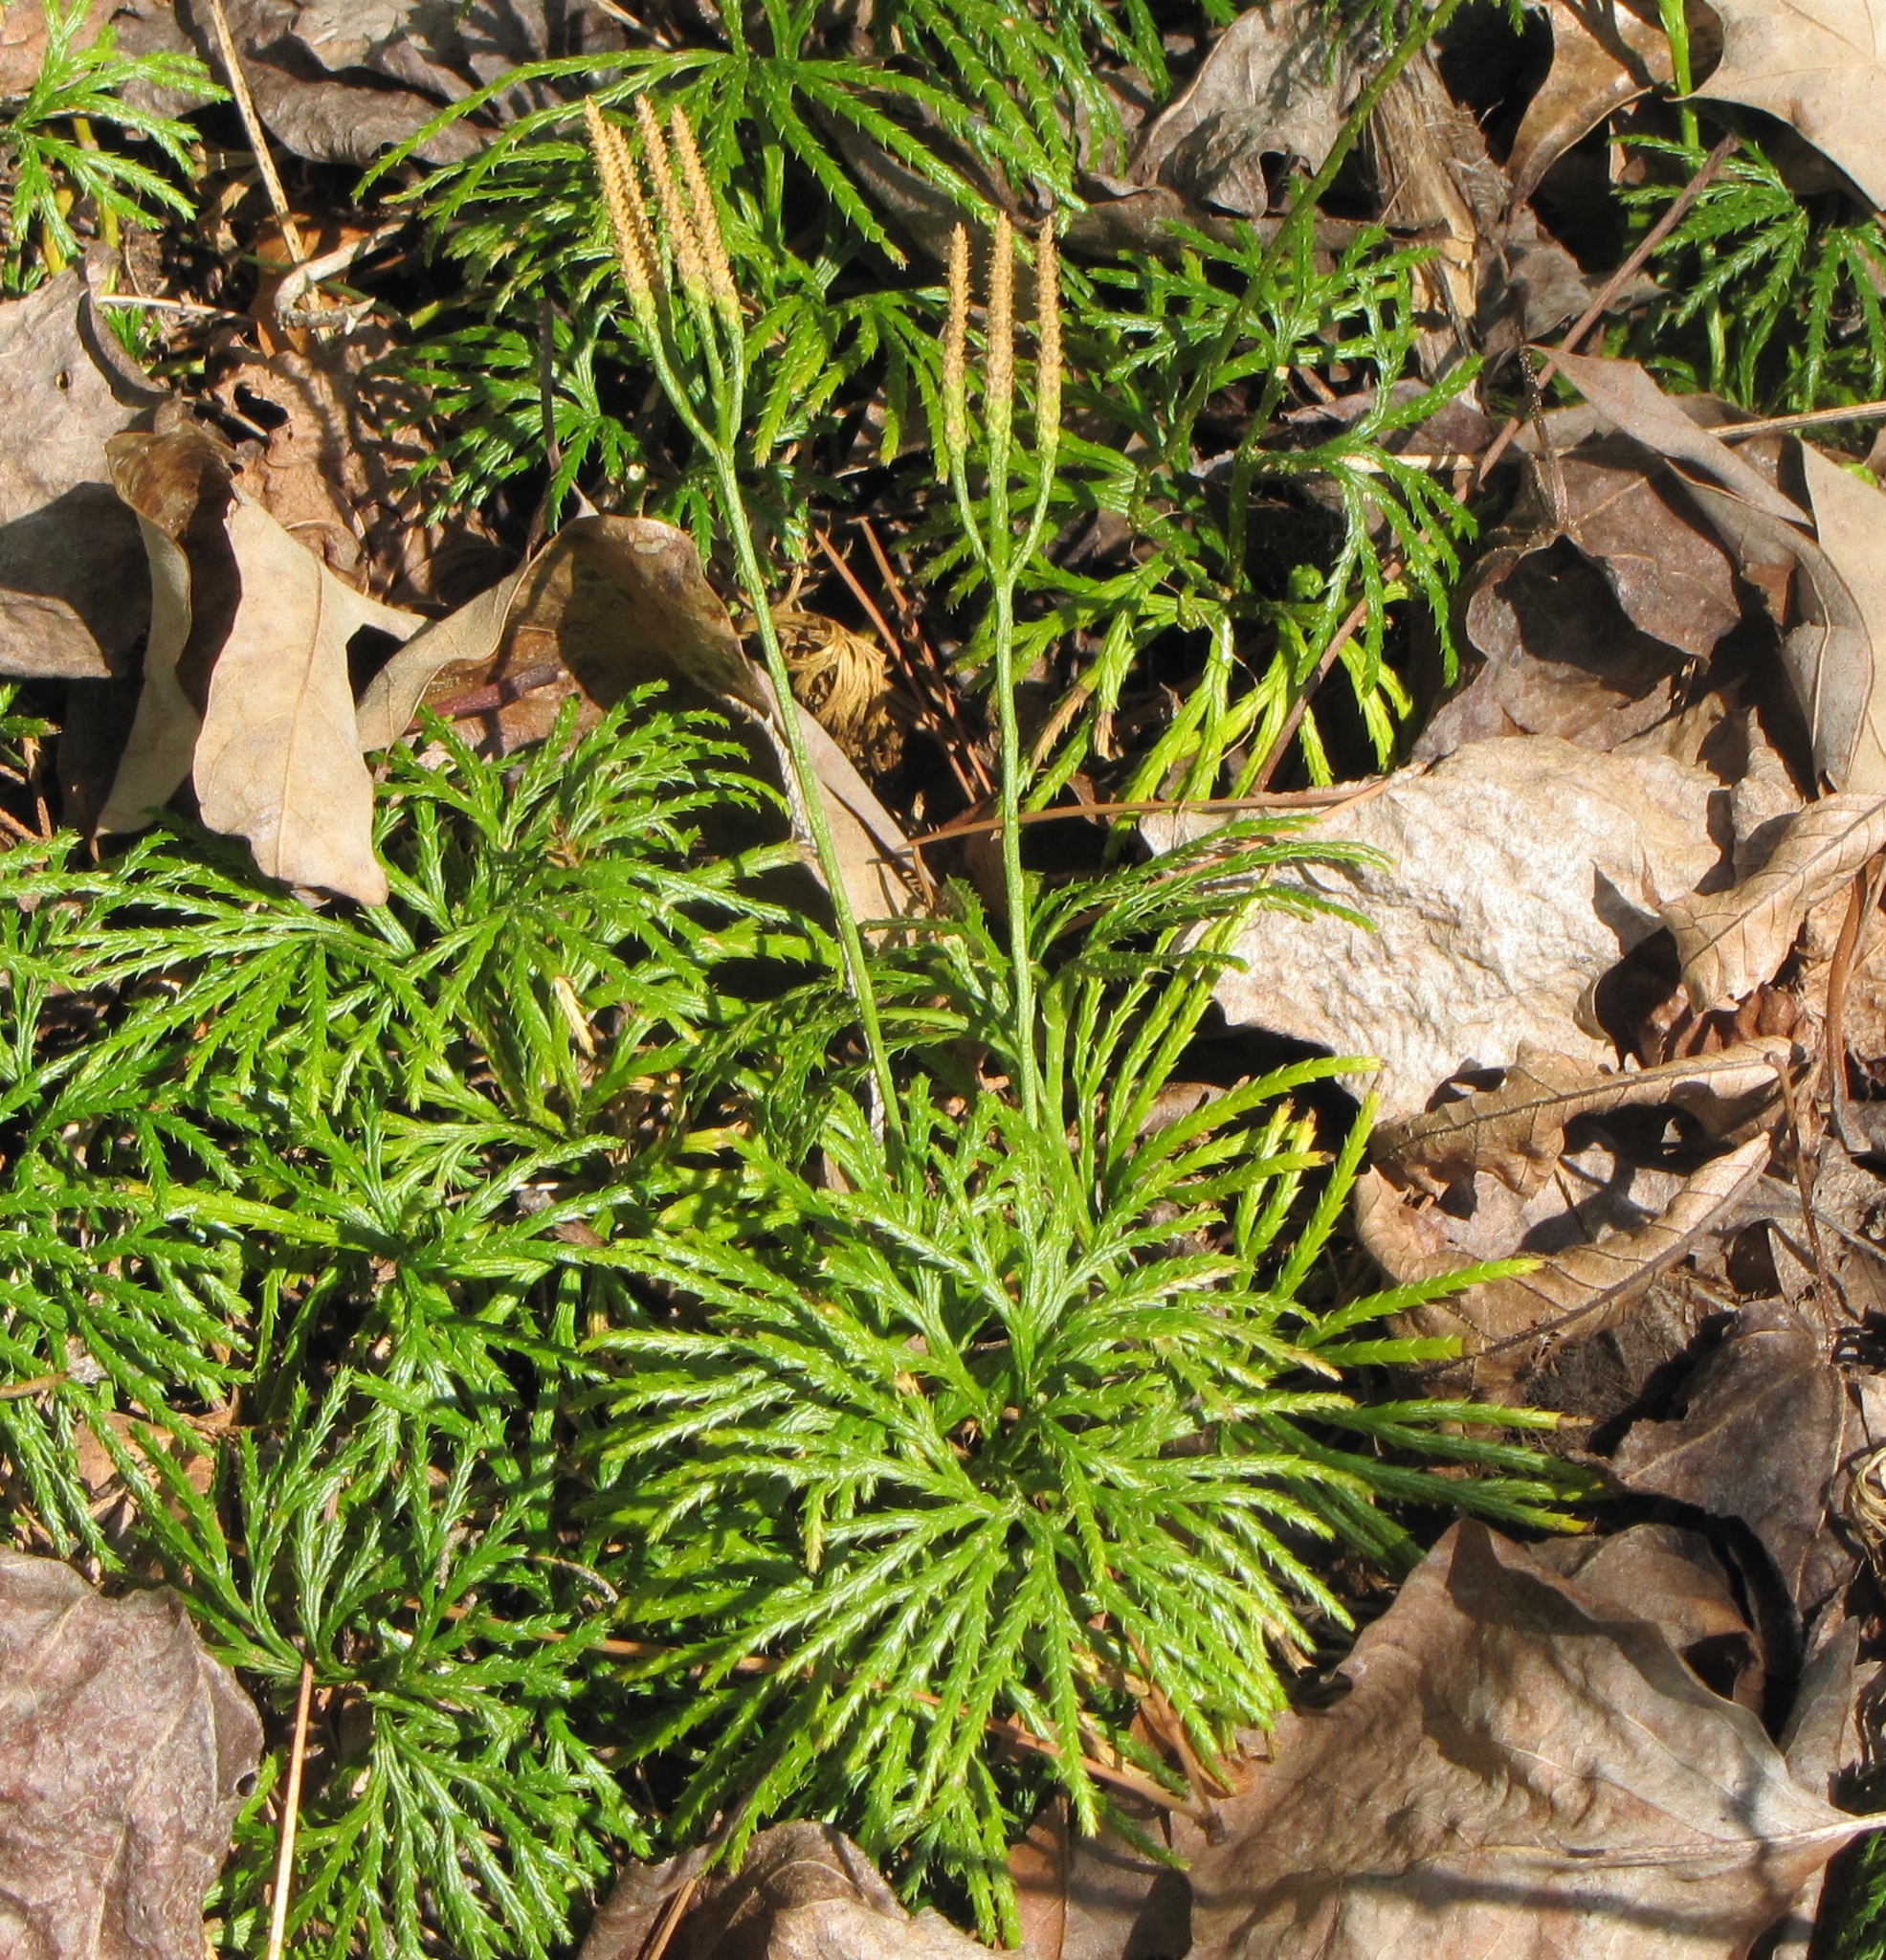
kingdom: Plantae
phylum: Tracheophyta
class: Lycopodiopsida
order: Lycopodiales
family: Lycopodiaceae
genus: Diphasiastrum
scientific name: Diphasiastrum digitatum
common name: Southern running-pine
